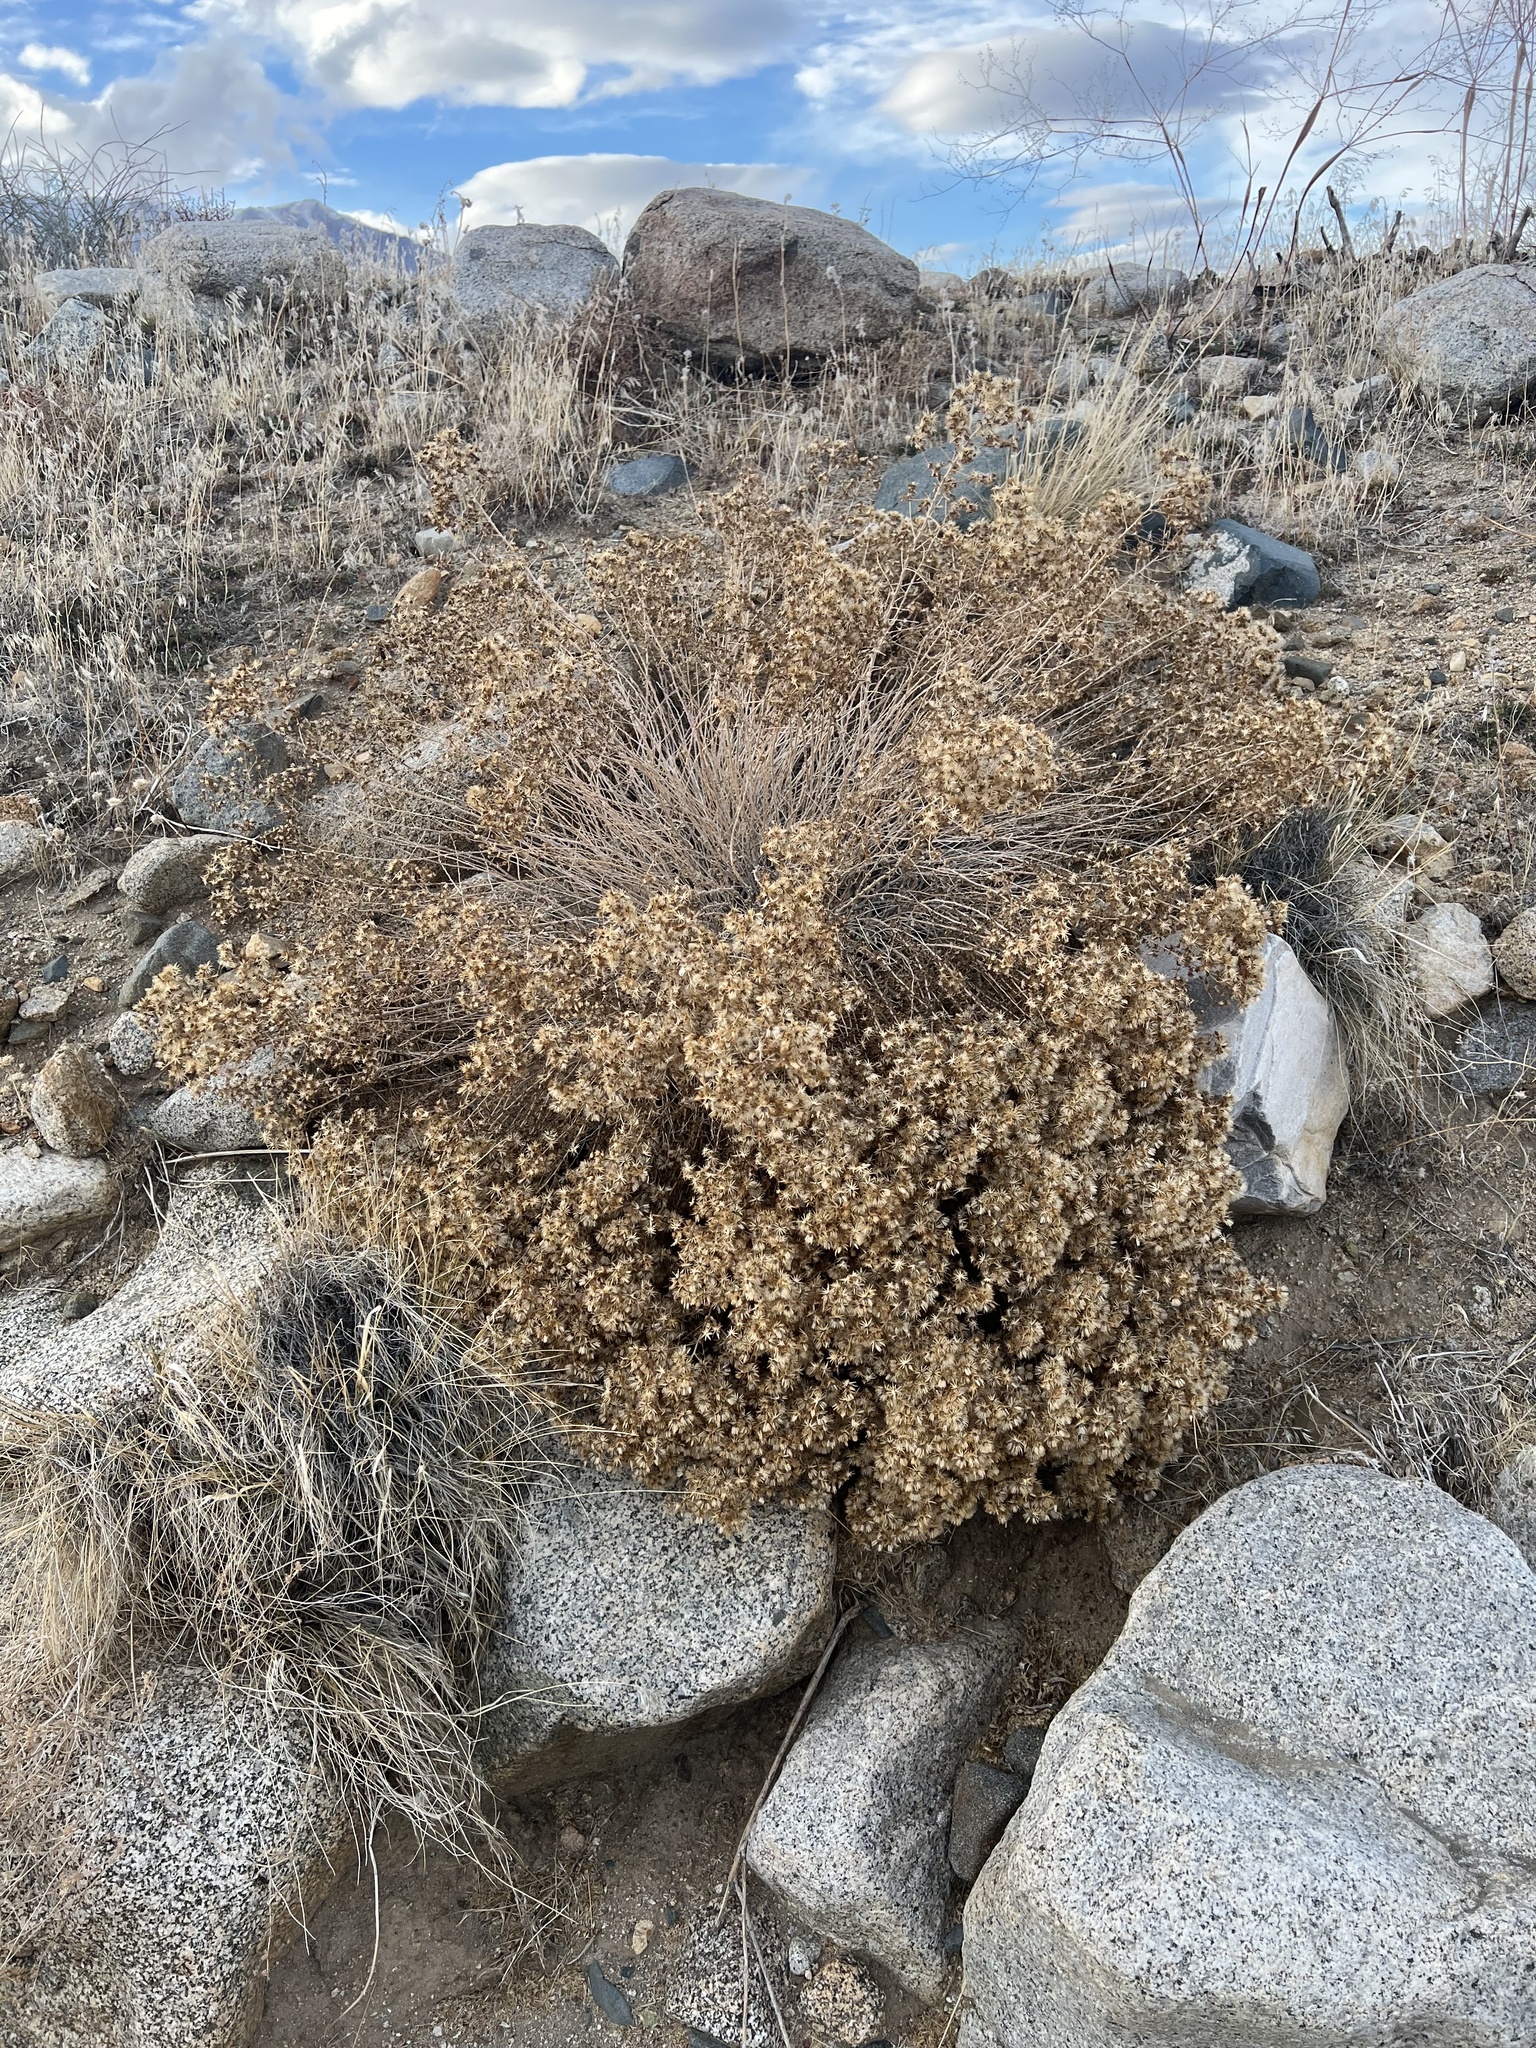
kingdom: Plantae
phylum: Tracheophyta
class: Magnoliopsida
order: Asterales
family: Asteraceae
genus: Brickellia
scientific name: Brickellia microphylla
